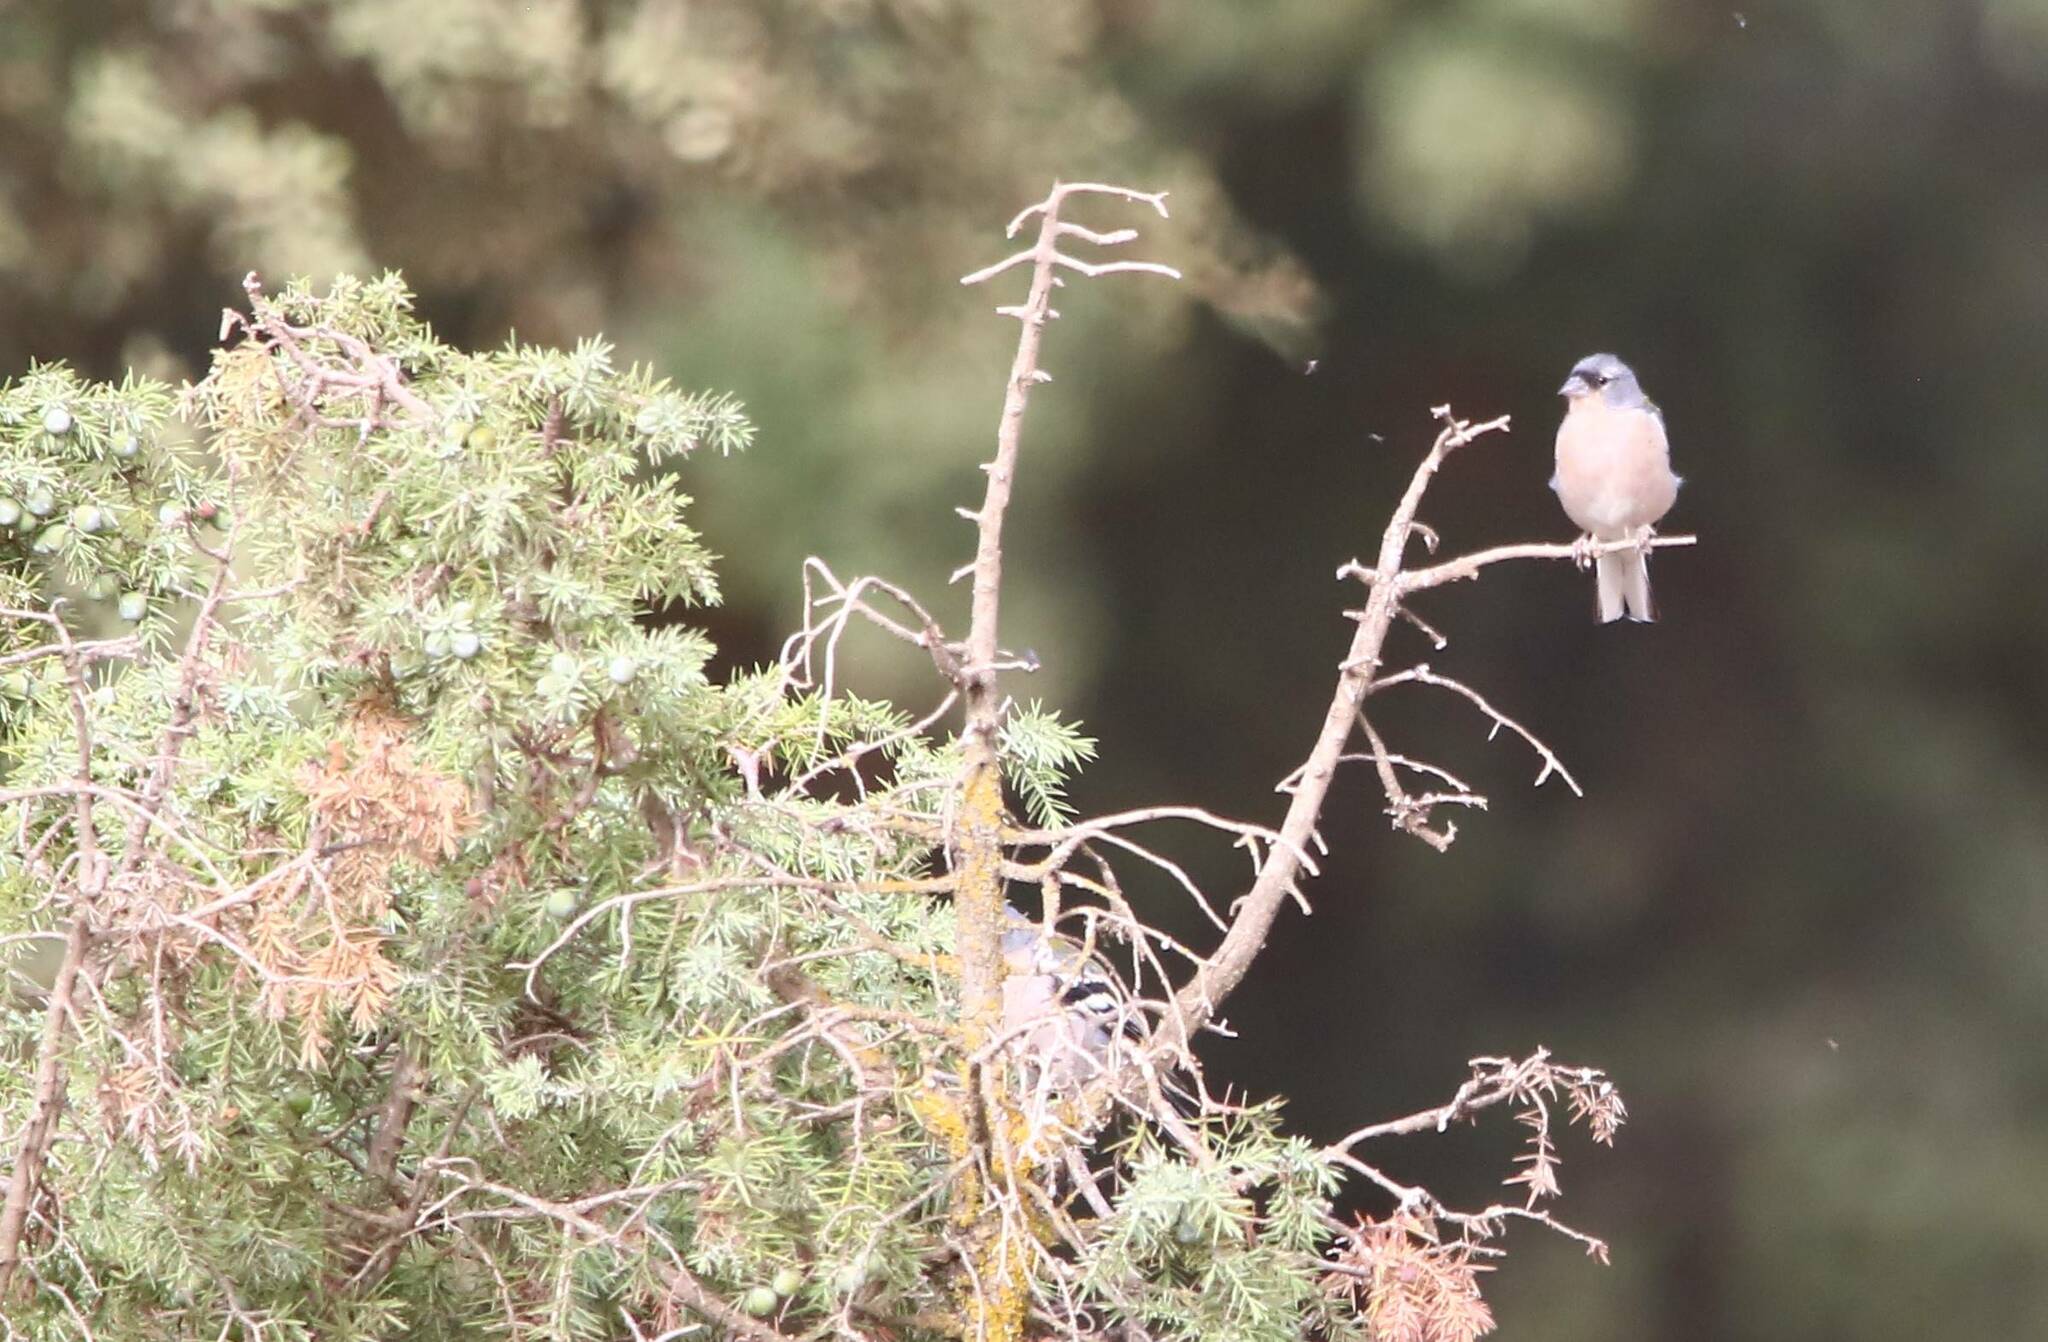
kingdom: Animalia
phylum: Chordata
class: Aves
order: Passeriformes
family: Fringillidae
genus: Fringilla
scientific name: Fringilla spodiogenys
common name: African chaffinch
